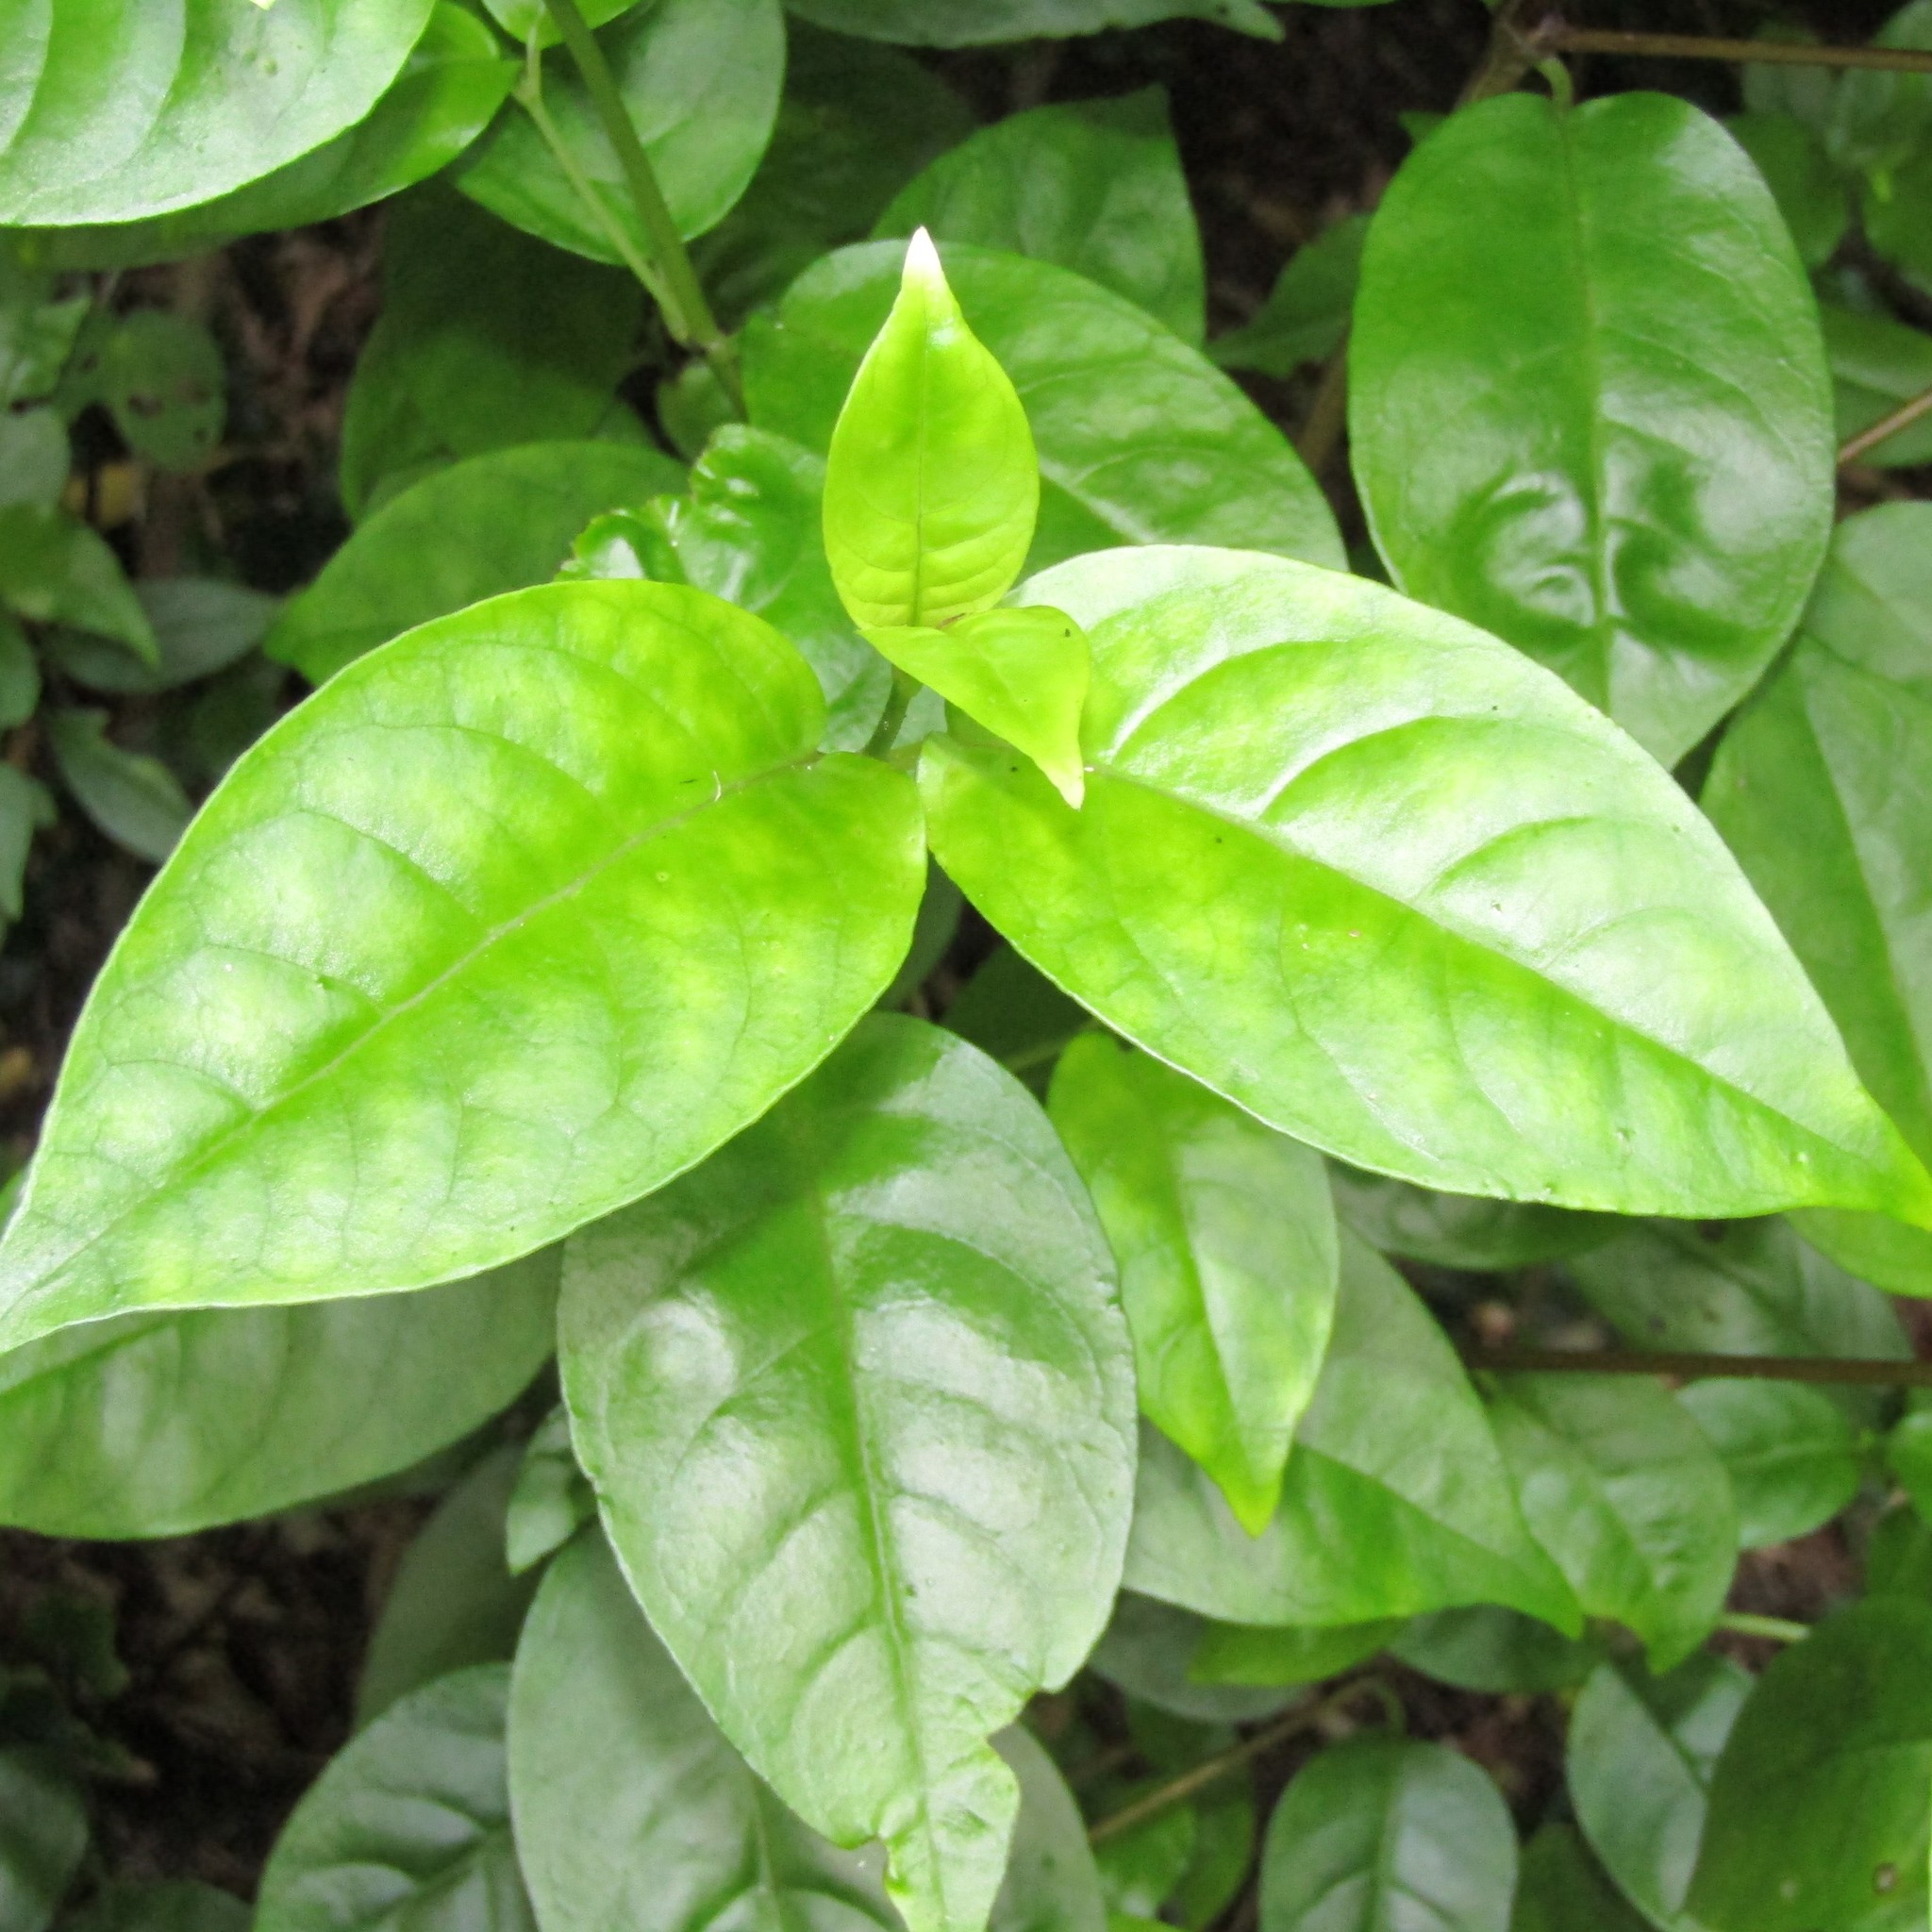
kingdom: Plantae
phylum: Tracheophyta
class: Magnoliopsida
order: Gentianales
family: Loganiaceae
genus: Geniostoma
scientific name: Geniostoma ligustrifolium
